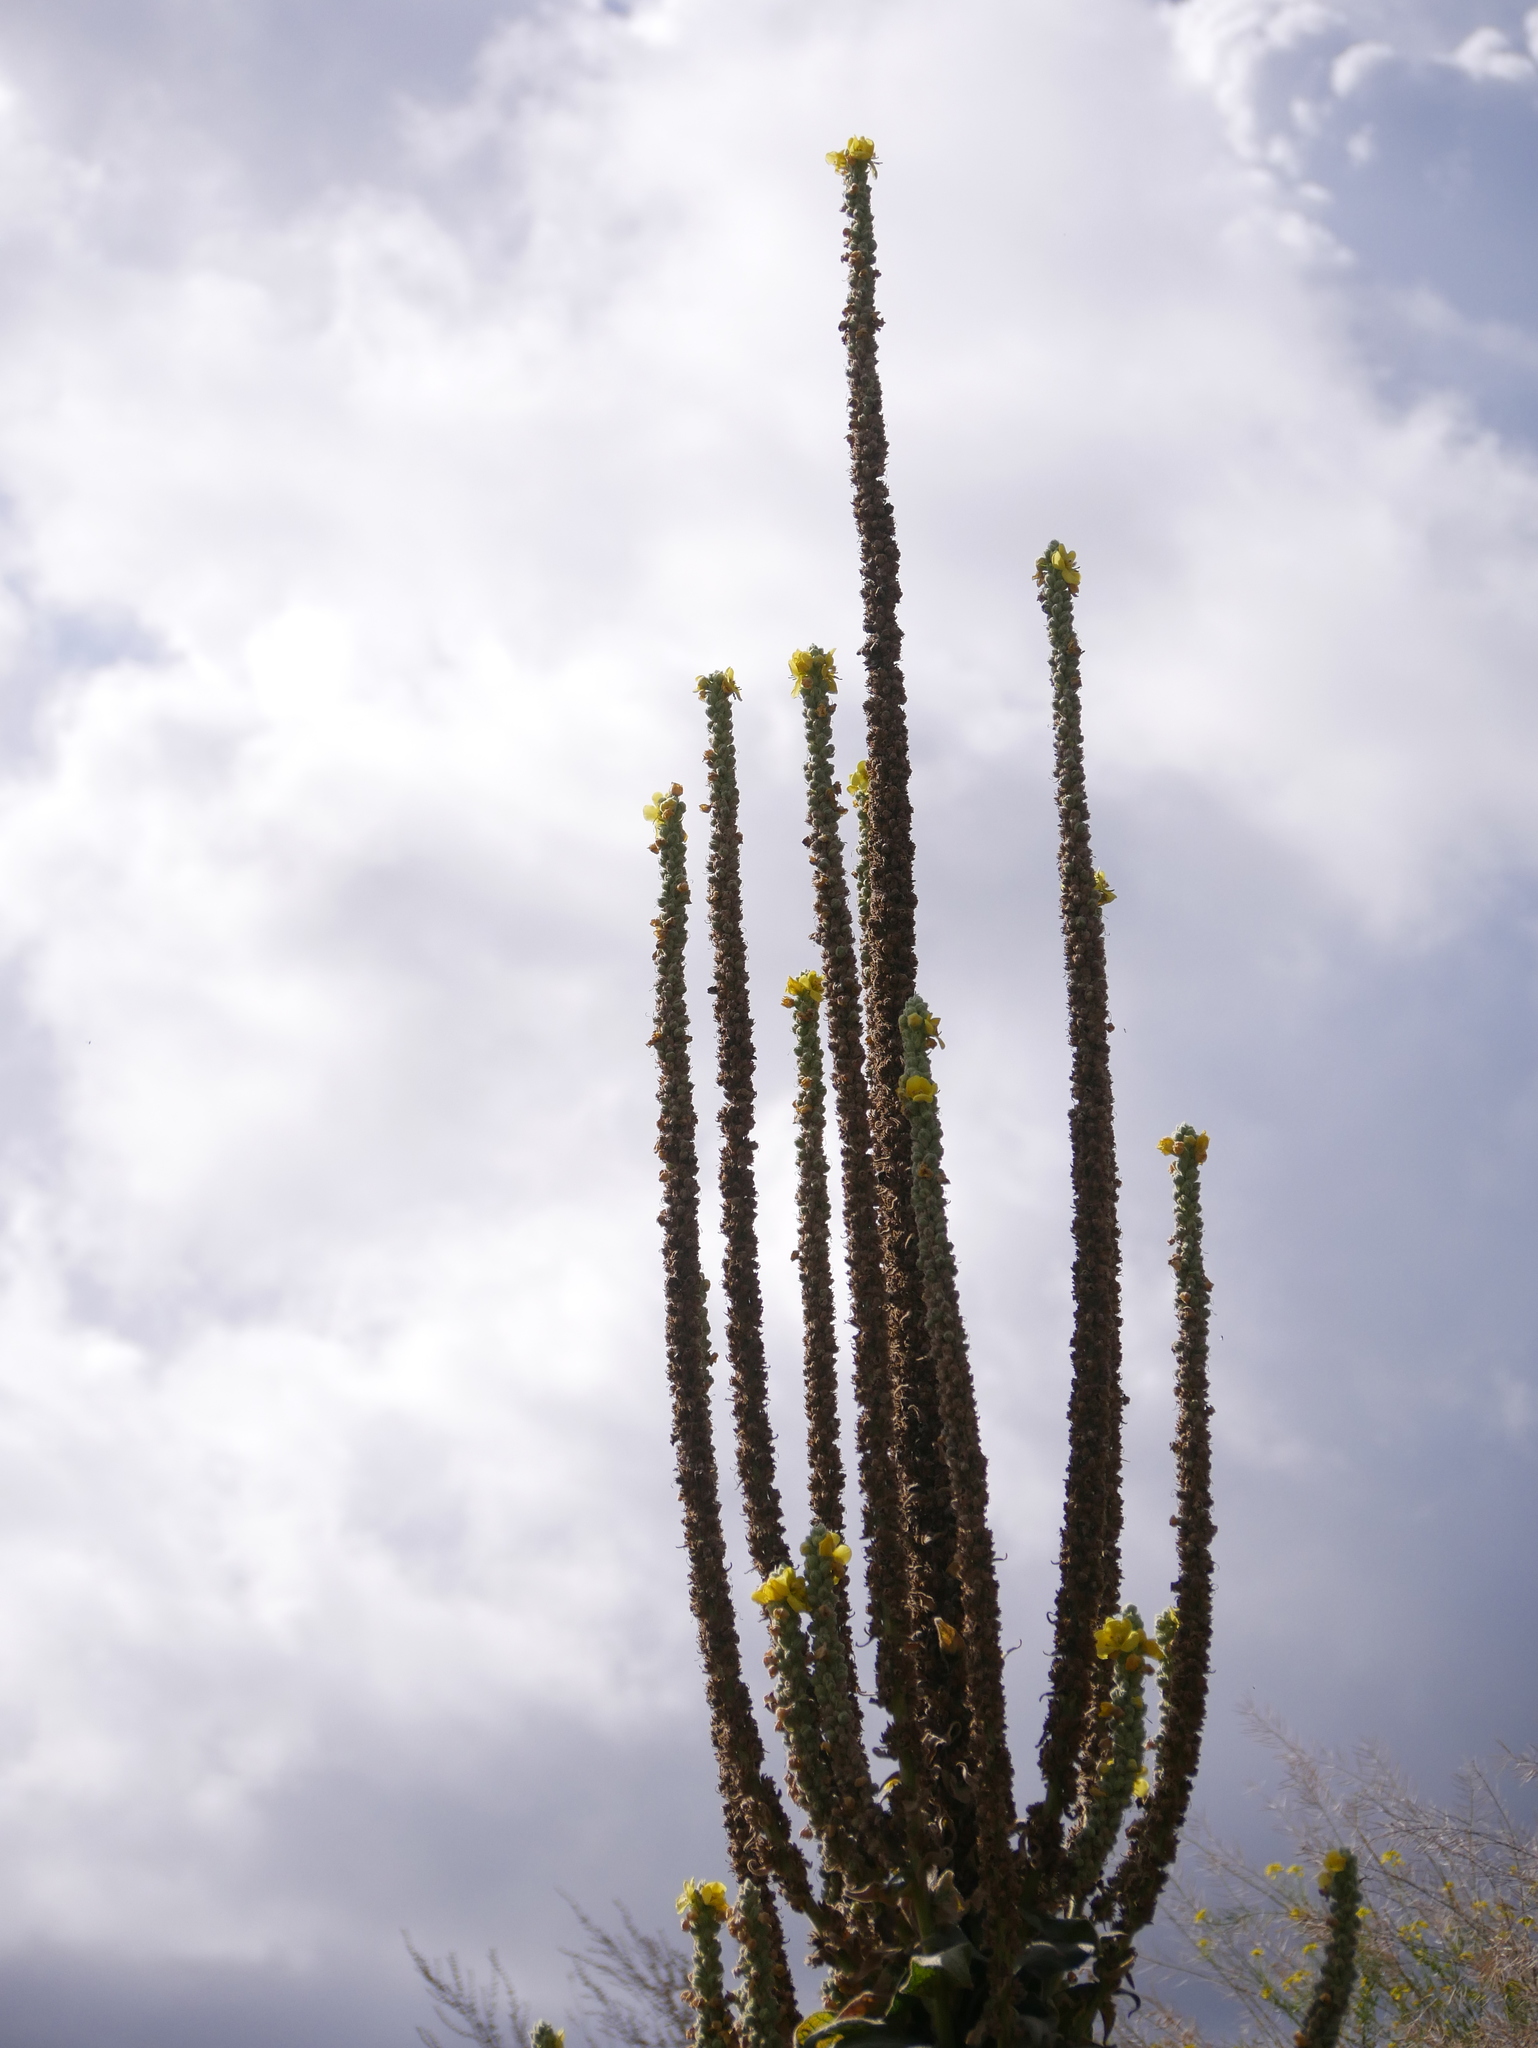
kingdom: Plantae
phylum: Tracheophyta
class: Magnoliopsida
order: Lamiales
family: Scrophulariaceae
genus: Verbascum
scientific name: Verbascum thapsus
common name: Common mullein
